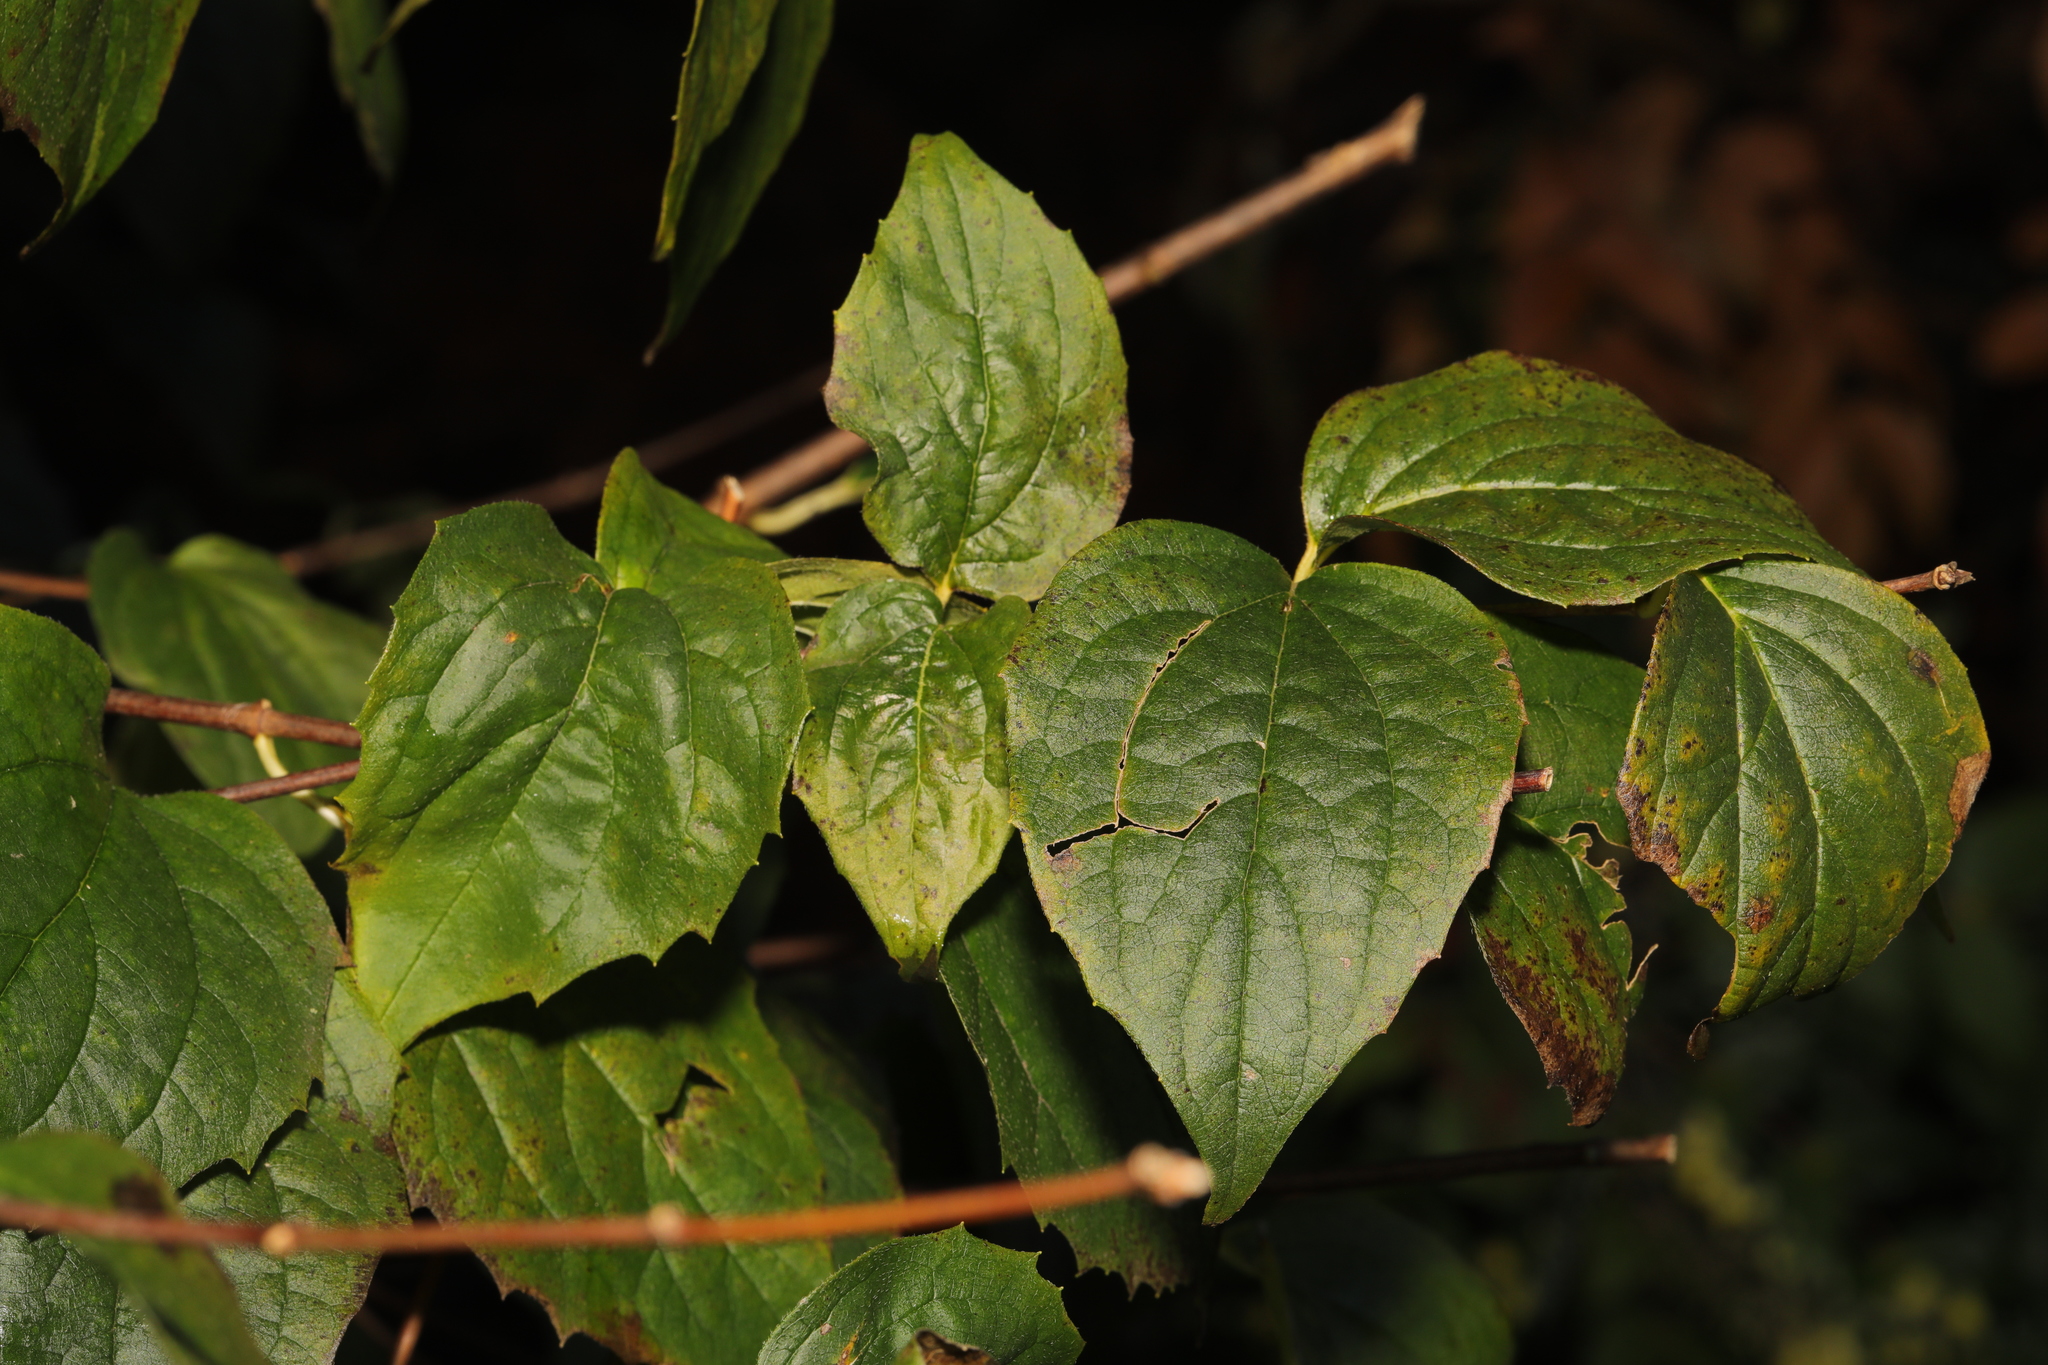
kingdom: Plantae
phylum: Tracheophyta
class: Magnoliopsida
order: Cornales
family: Hydrangeaceae
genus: Philadelphus
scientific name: Philadelphus coronarius
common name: Mock orange
